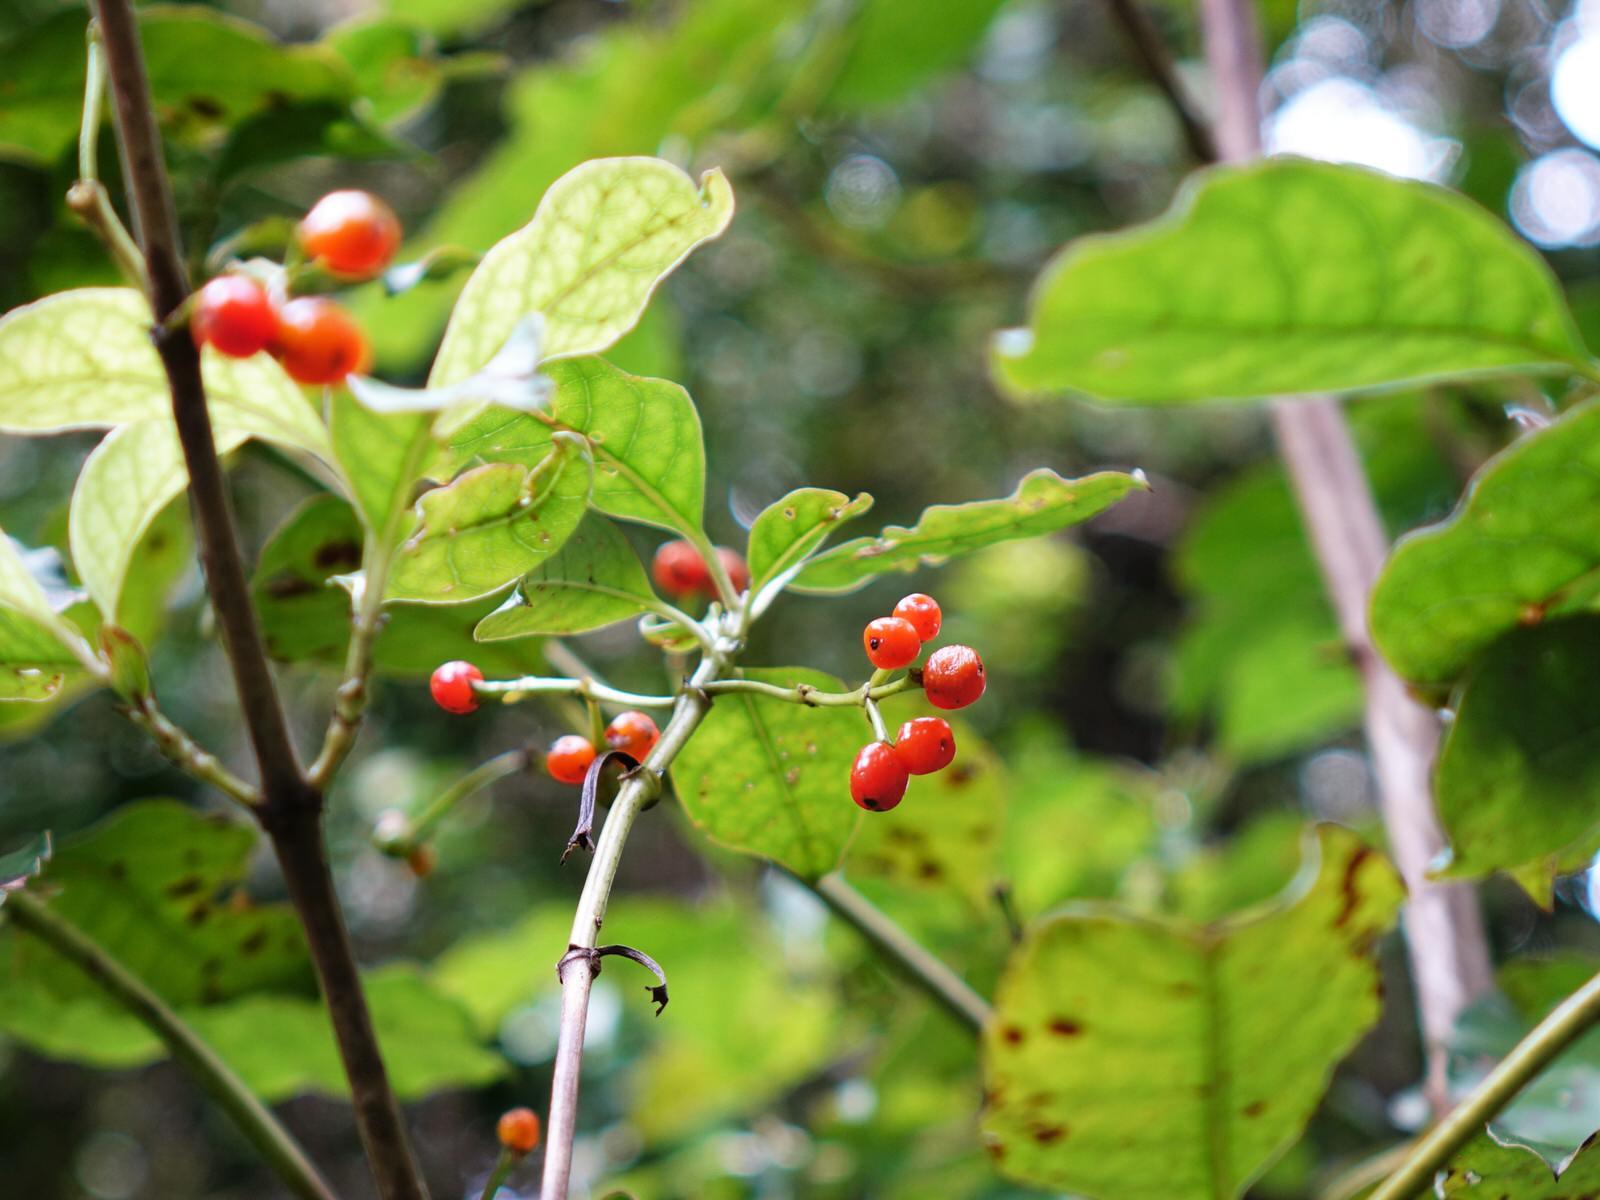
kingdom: Plantae
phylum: Tracheophyta
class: Magnoliopsida
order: Gentianales
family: Rubiaceae
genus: Coprosma
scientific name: Coprosma autumnalis
